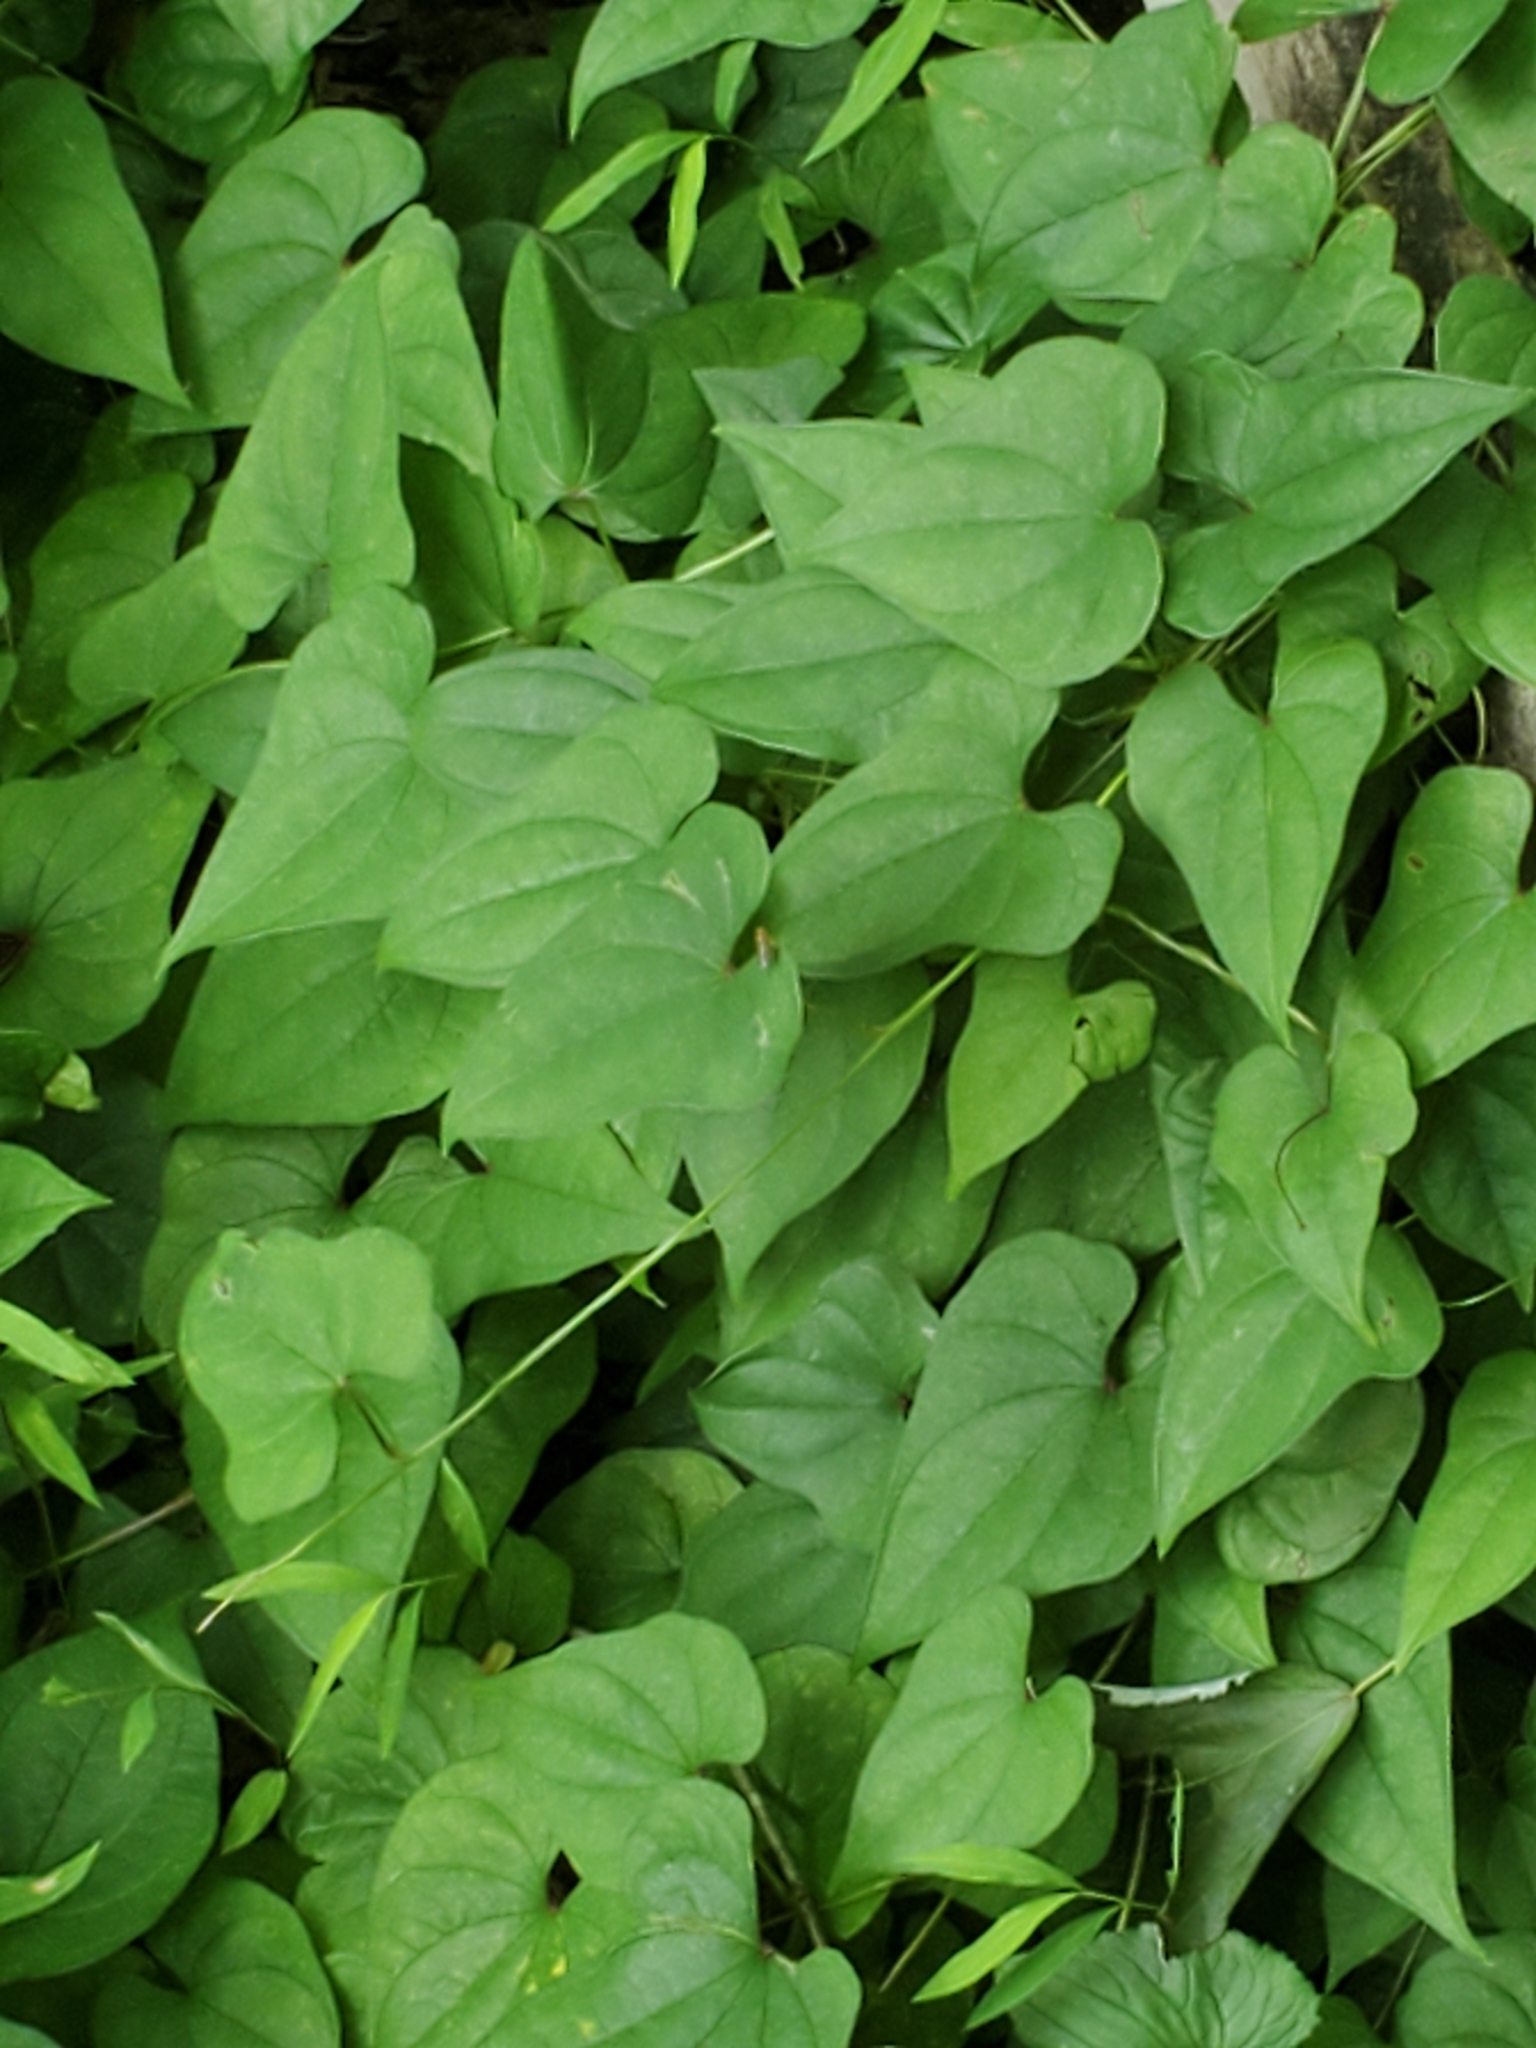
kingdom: Plantae
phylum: Tracheophyta
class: Liliopsida
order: Dioscoreales
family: Dioscoreaceae
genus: Dioscorea
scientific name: Dioscorea polystachya
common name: Chinese yam
